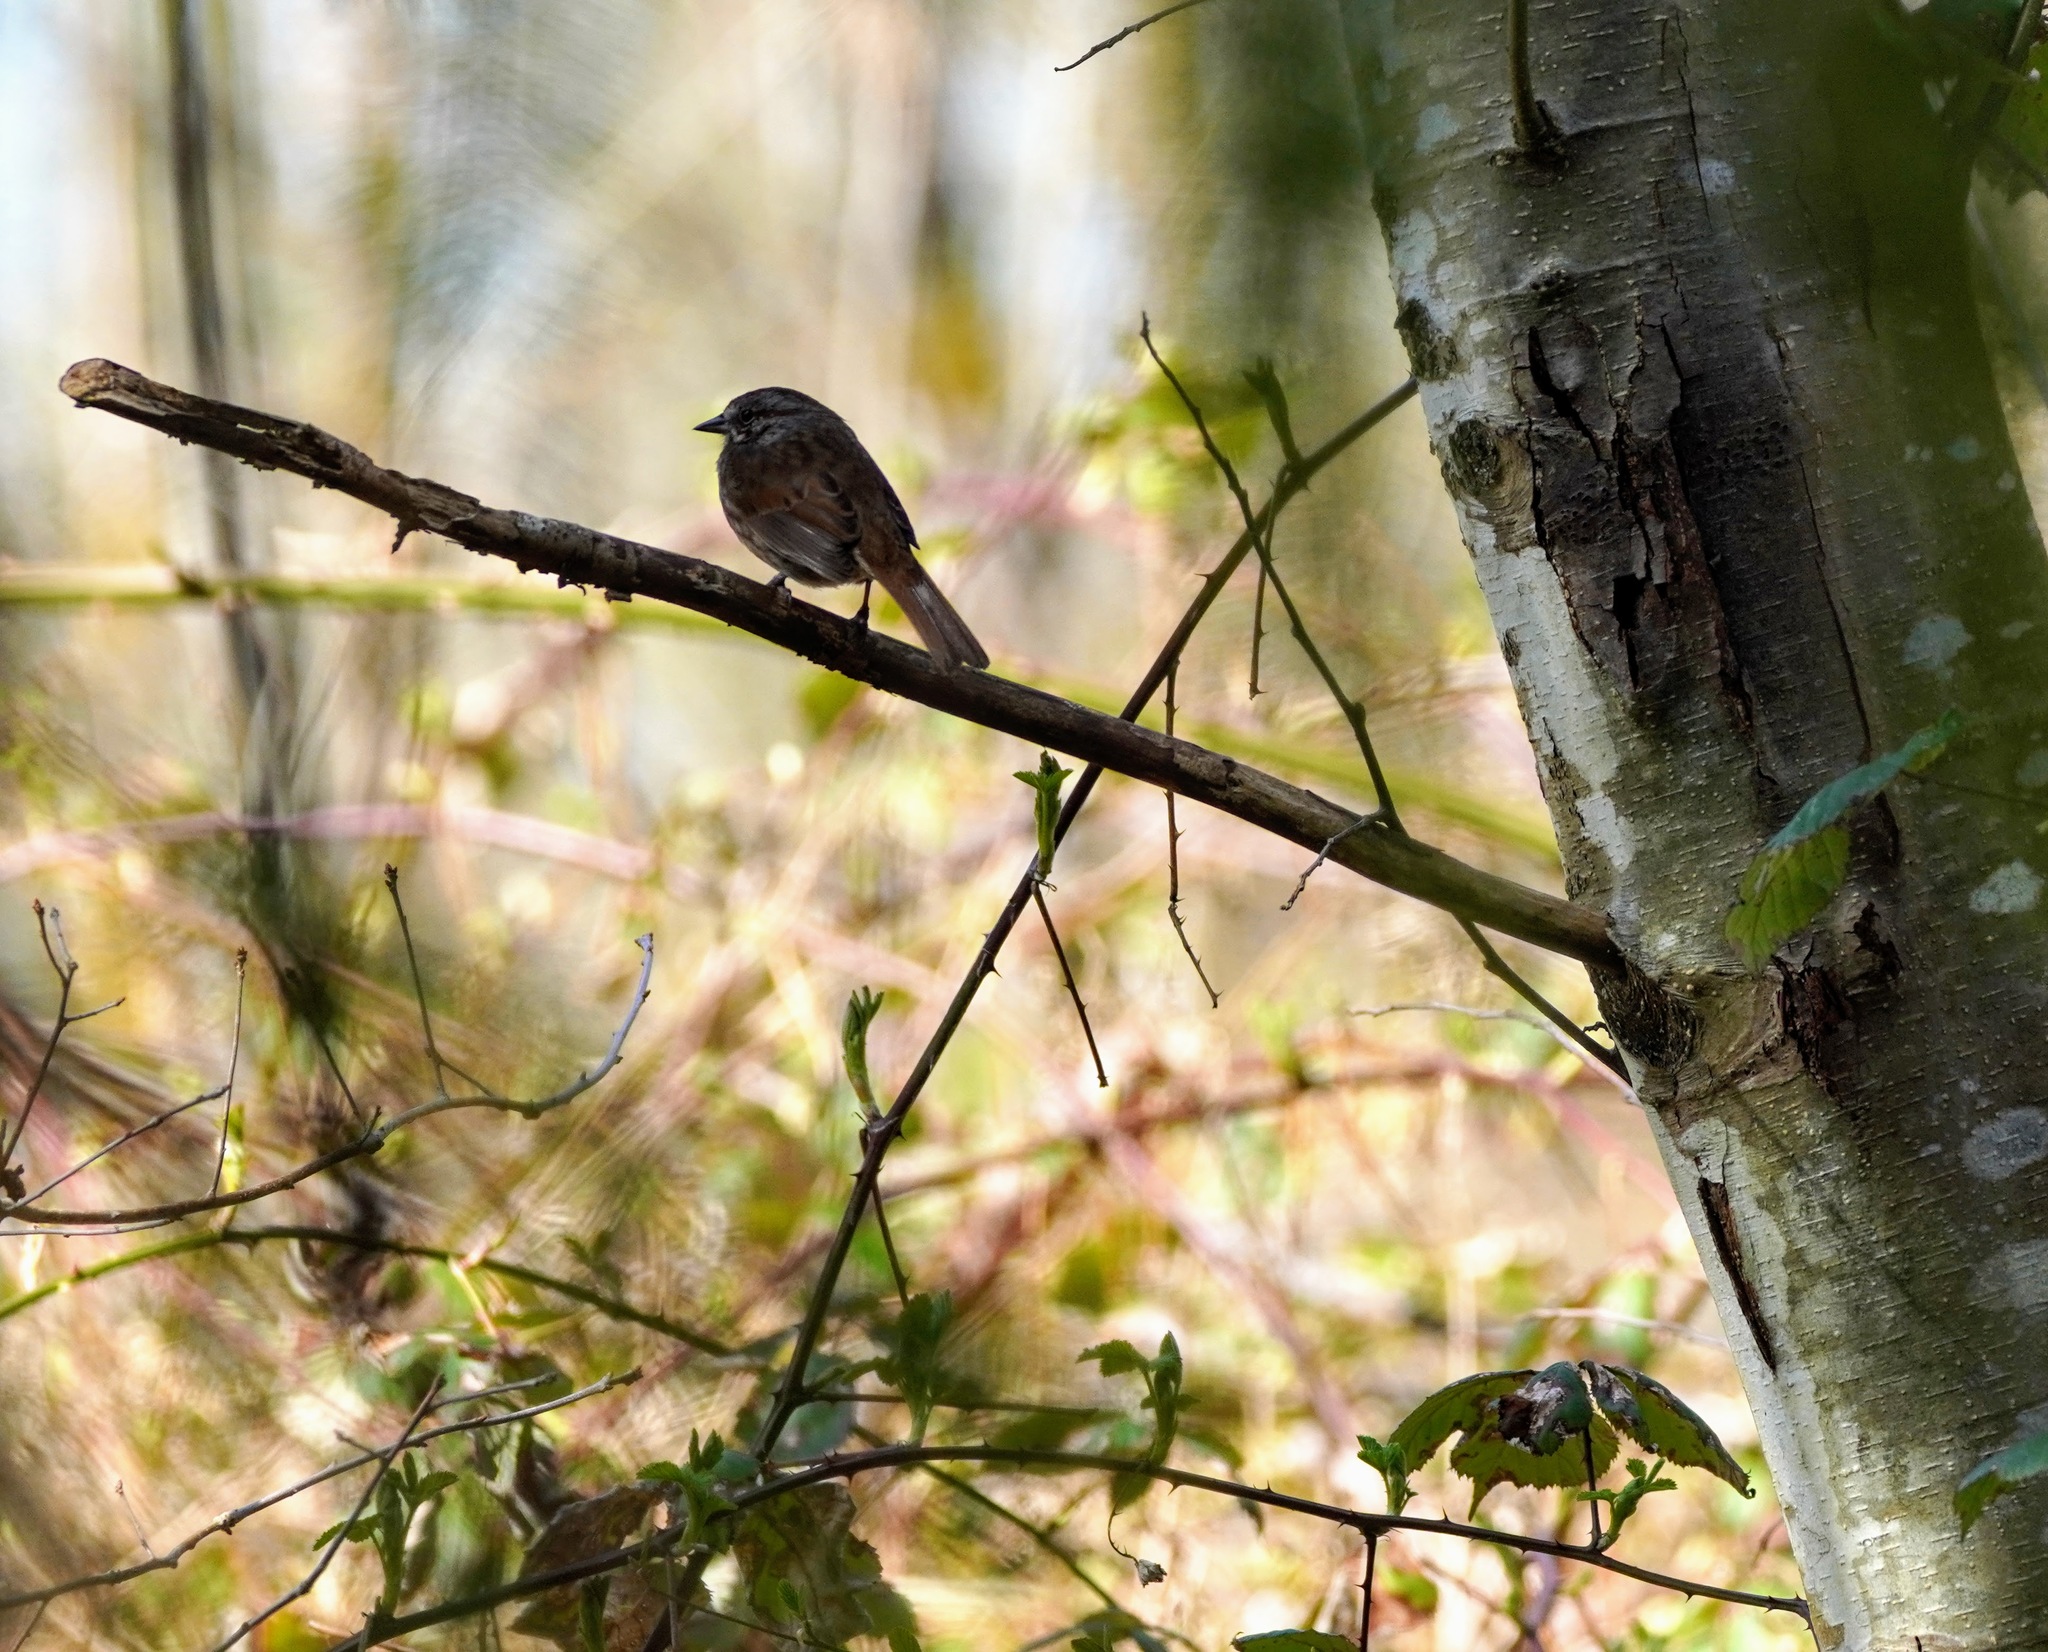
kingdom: Animalia
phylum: Chordata
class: Aves
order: Passeriformes
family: Passerellidae
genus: Melospiza
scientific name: Melospiza melodia
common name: Song sparrow
